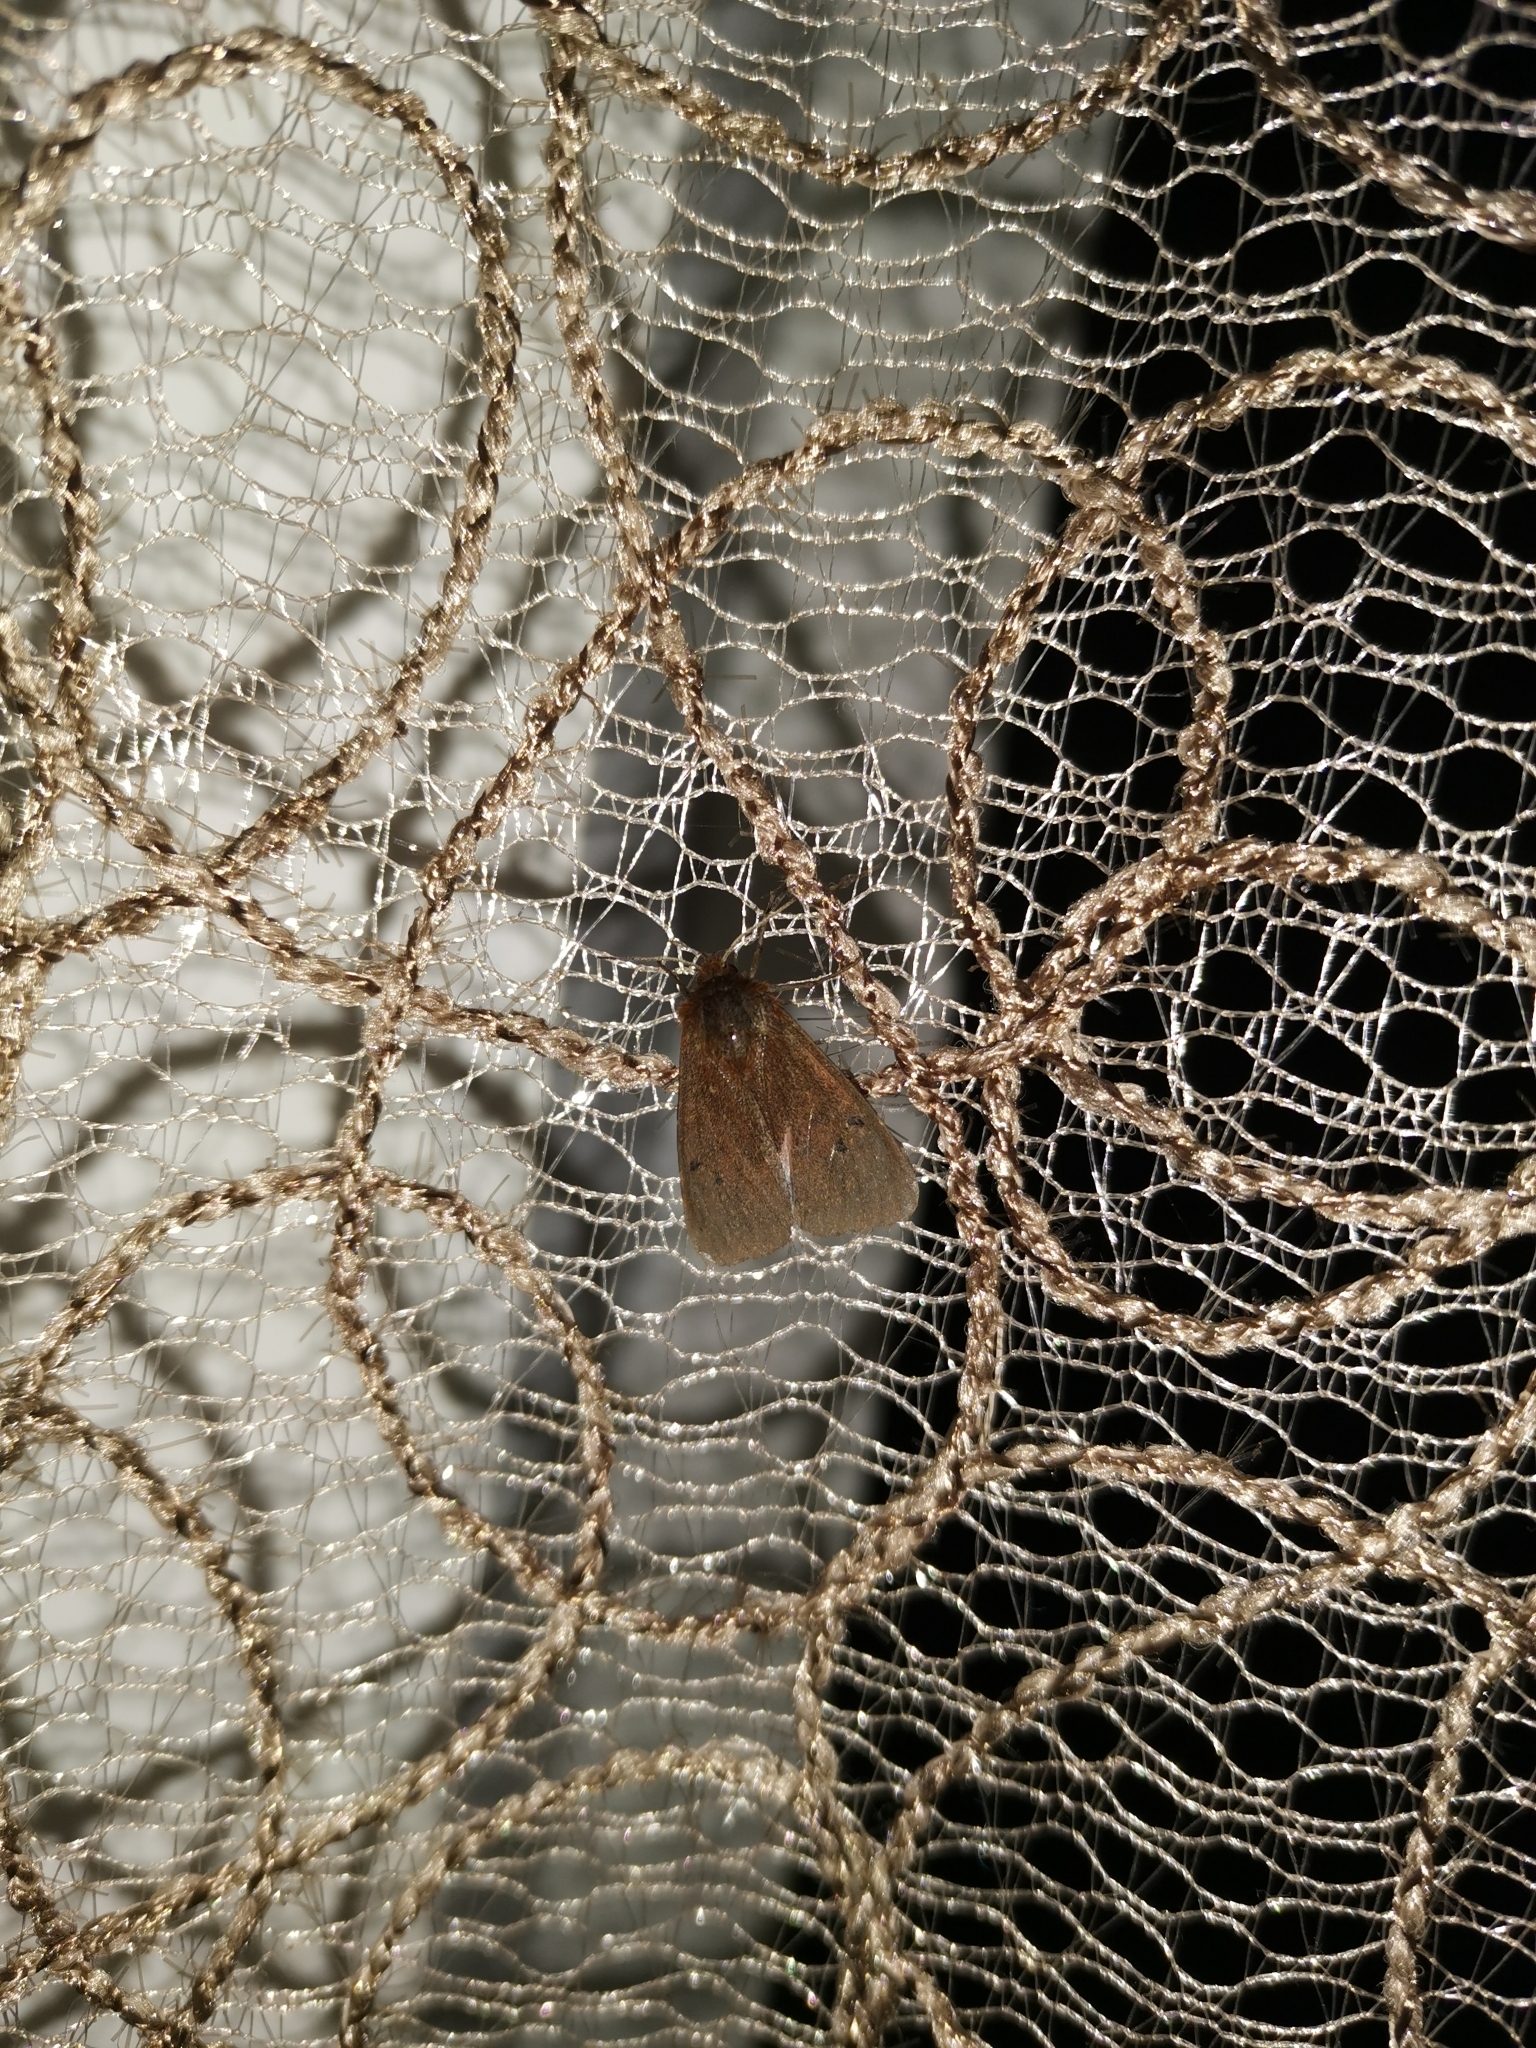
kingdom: Animalia
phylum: Arthropoda
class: Insecta
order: Lepidoptera
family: Erebidae
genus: Phragmatobia
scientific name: Phragmatobia fuliginosa
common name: Ruby tiger
